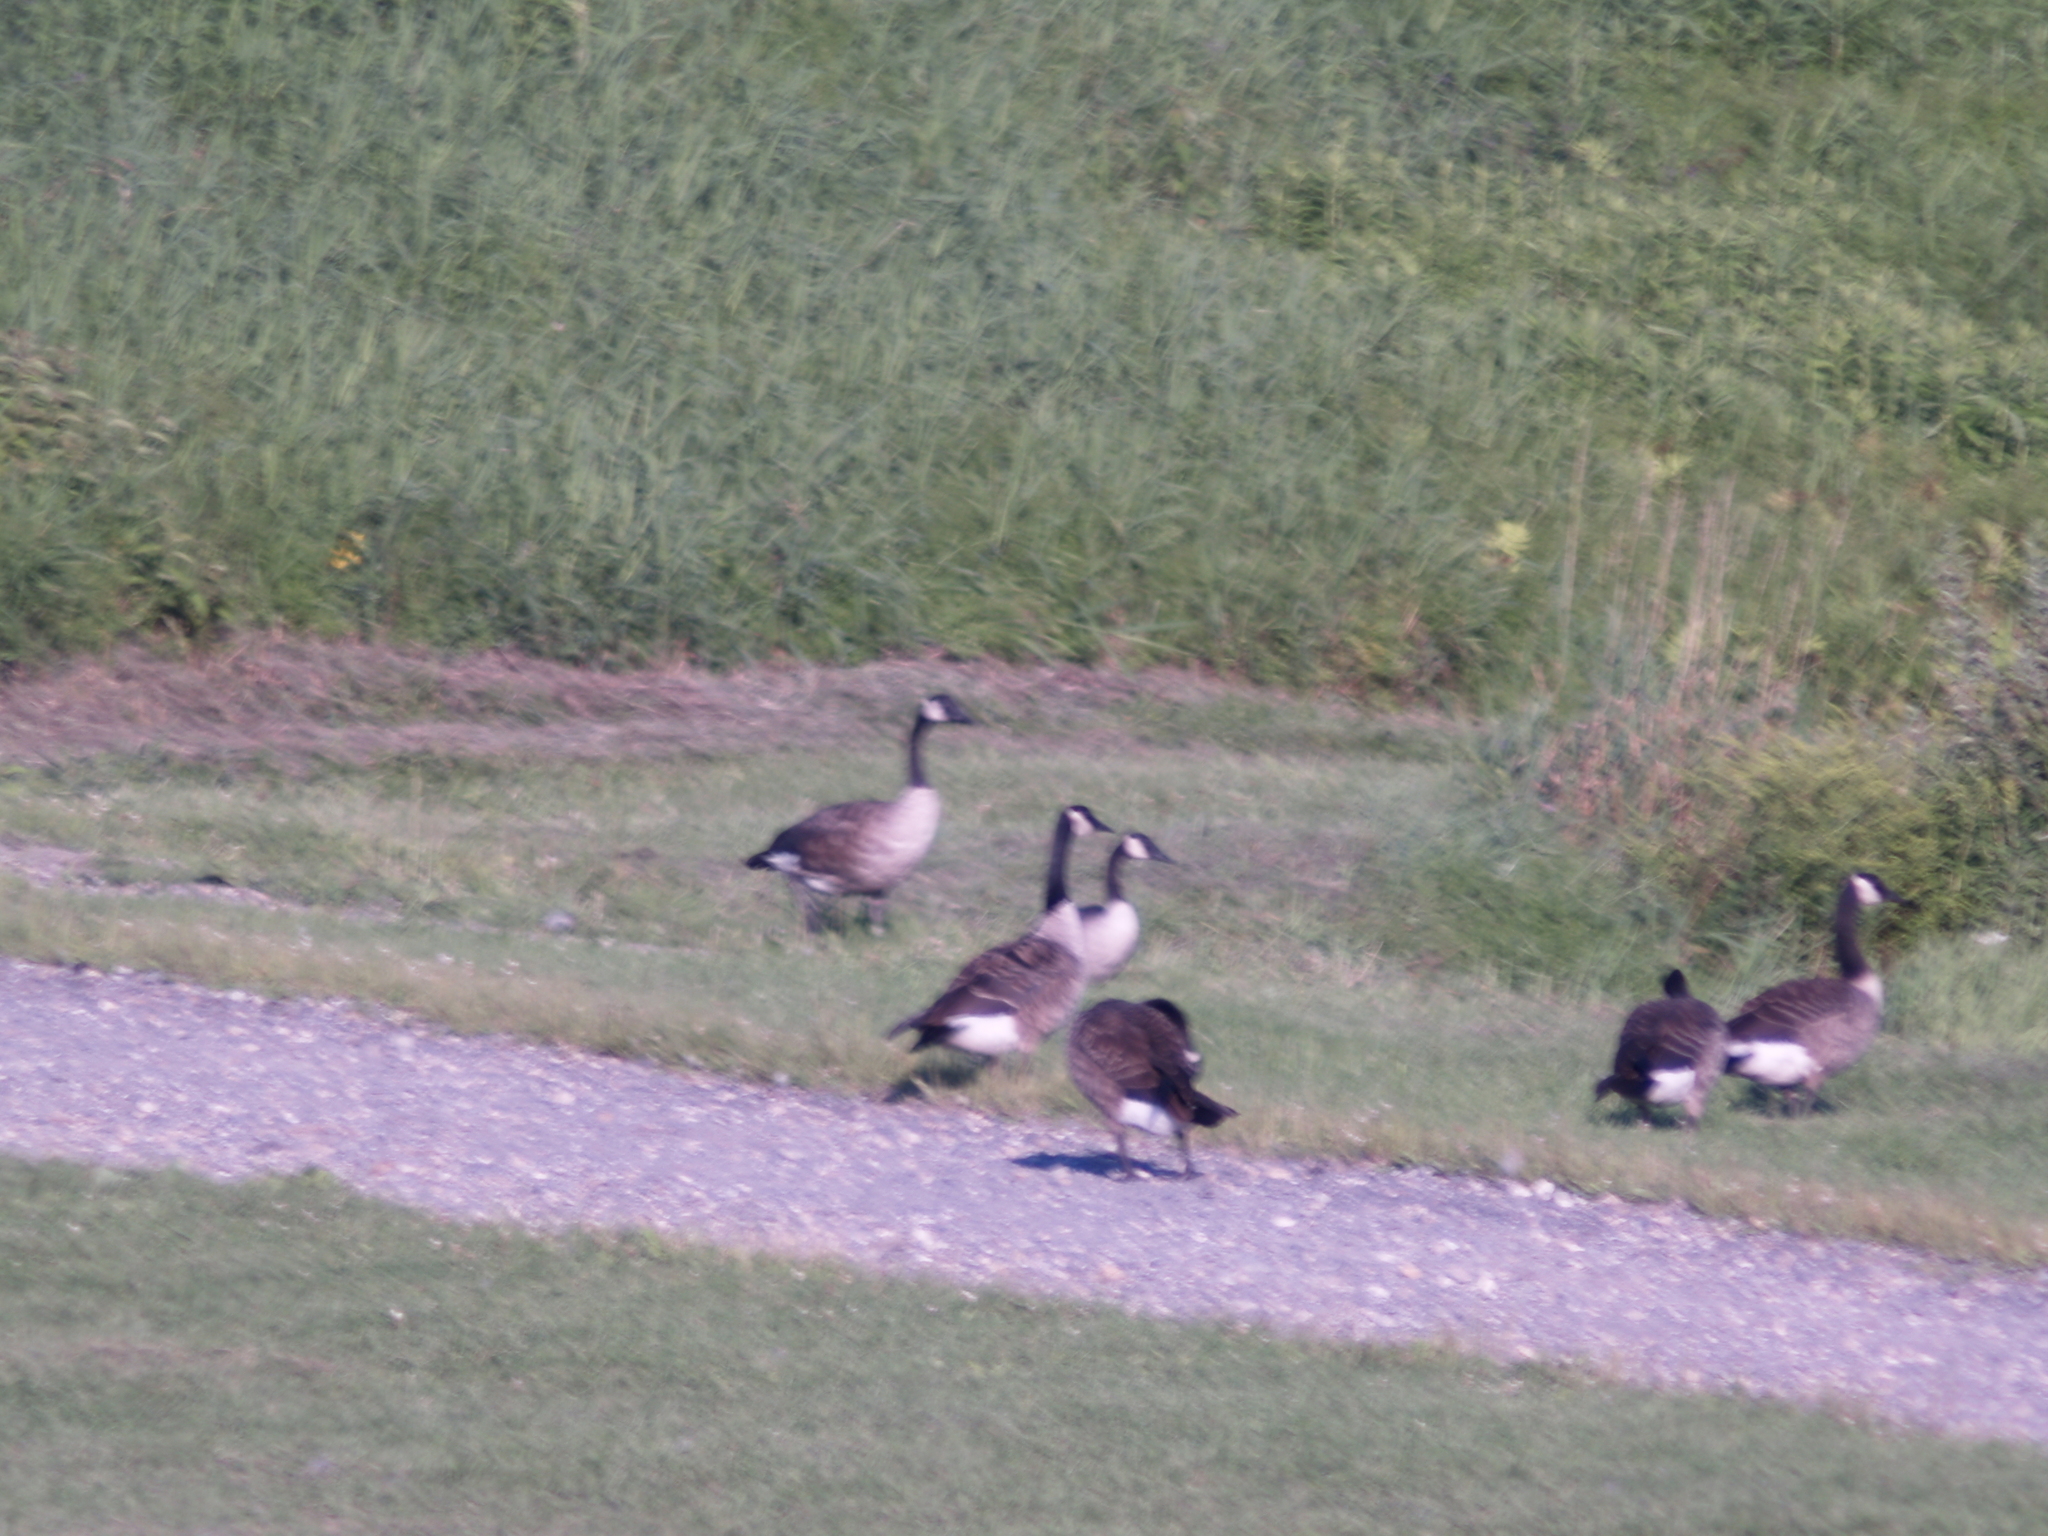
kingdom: Animalia
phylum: Chordata
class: Aves
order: Anseriformes
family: Anatidae
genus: Branta
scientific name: Branta canadensis
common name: Canada goose
